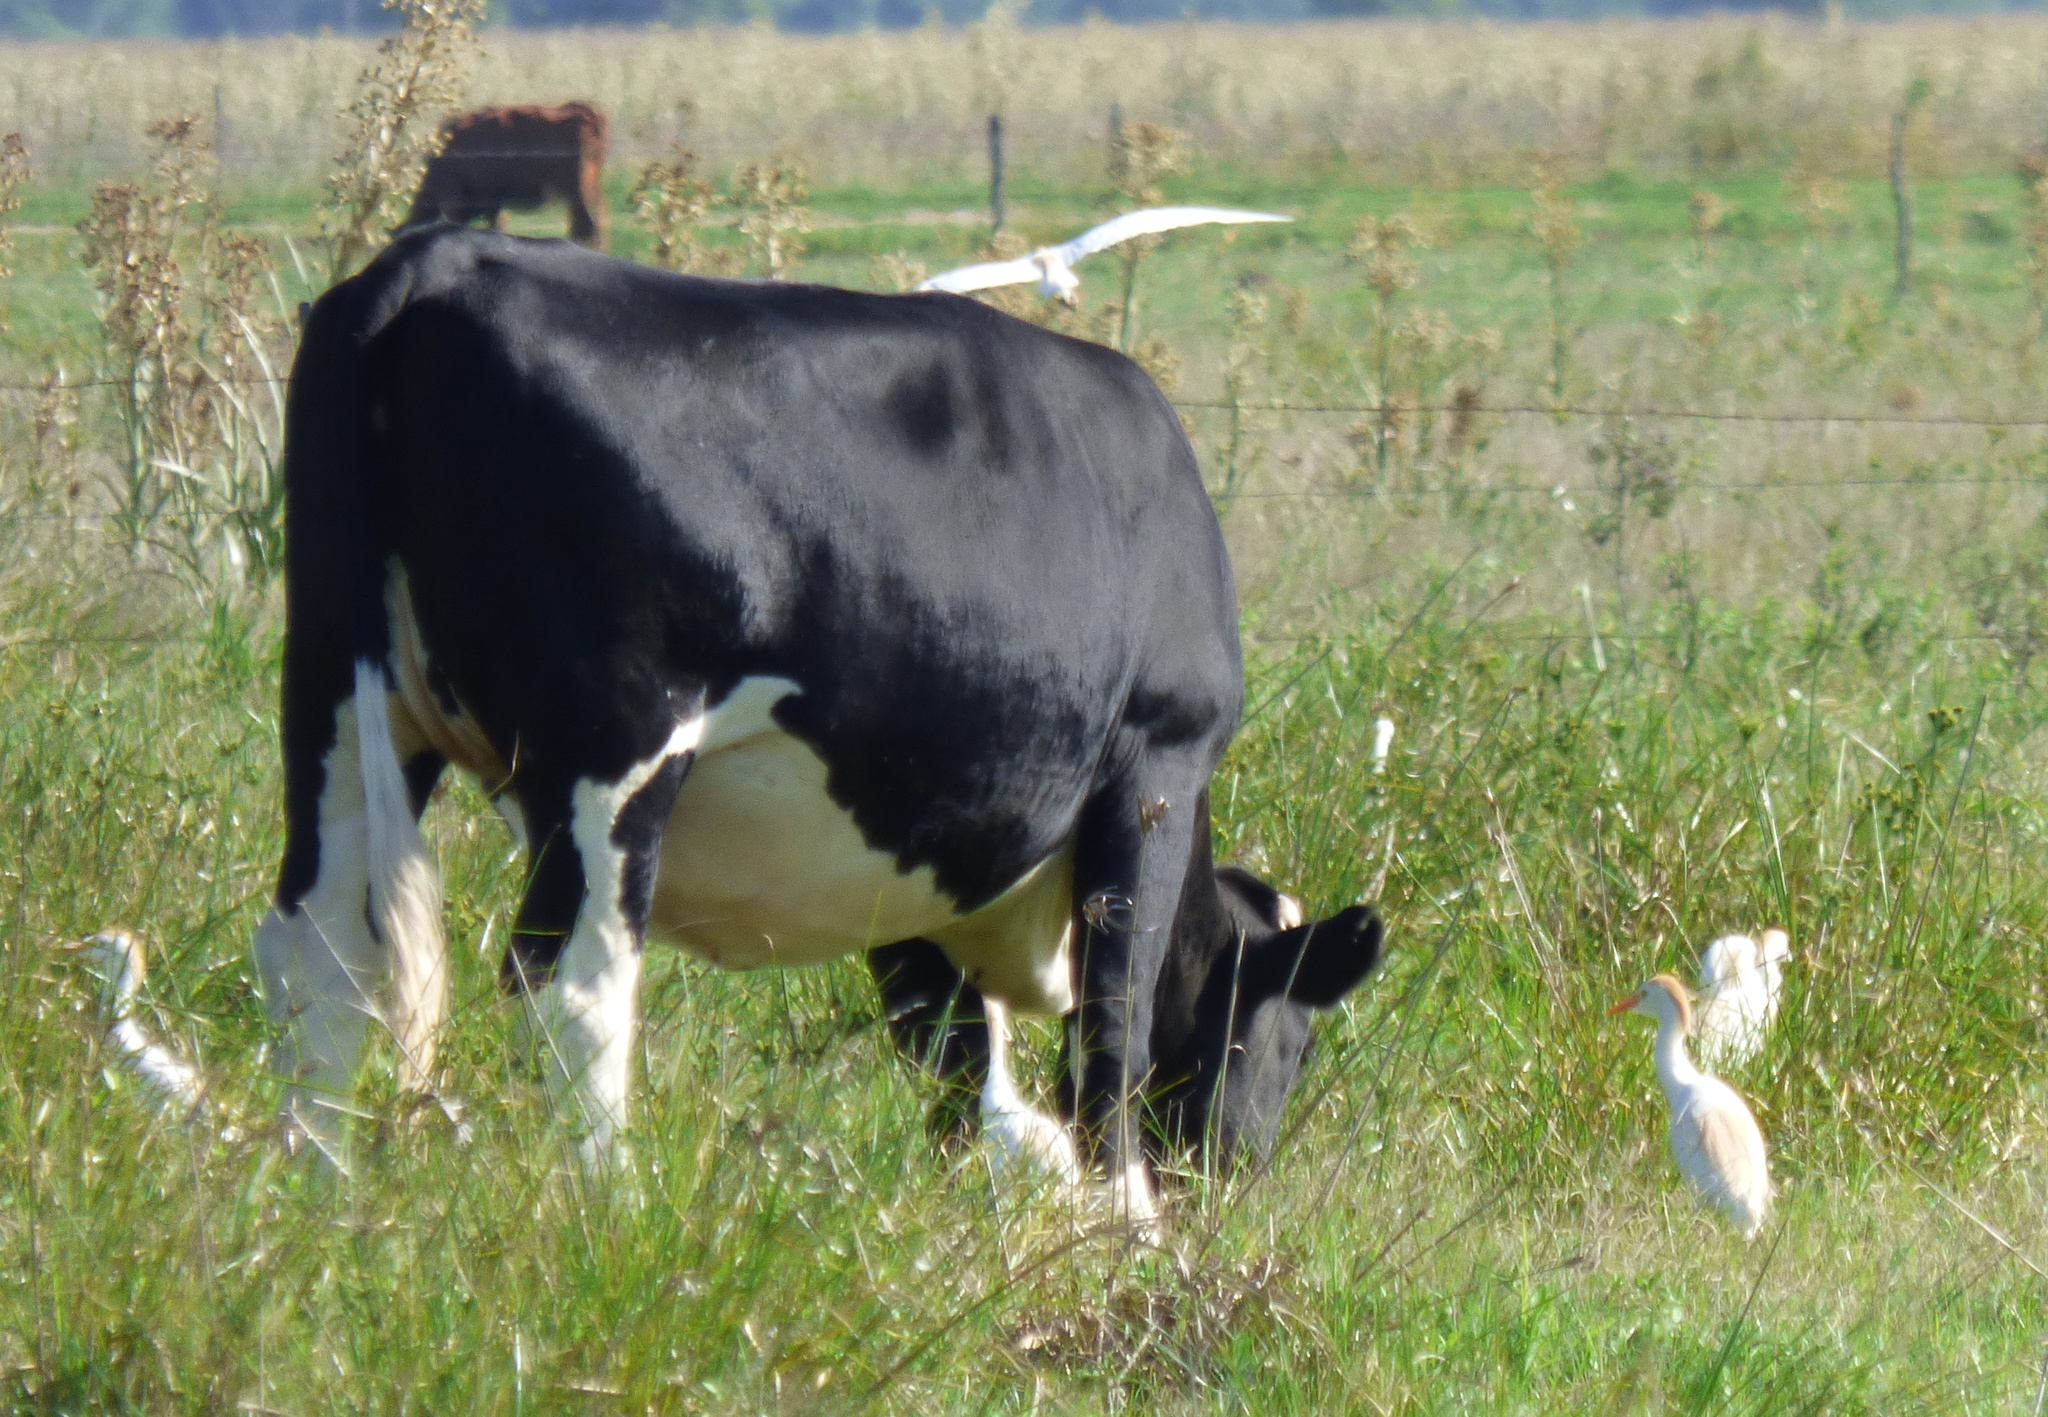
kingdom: Animalia
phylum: Chordata
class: Aves
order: Pelecaniformes
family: Ardeidae
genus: Bubulcus
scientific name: Bubulcus ibis
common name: Cattle egret
